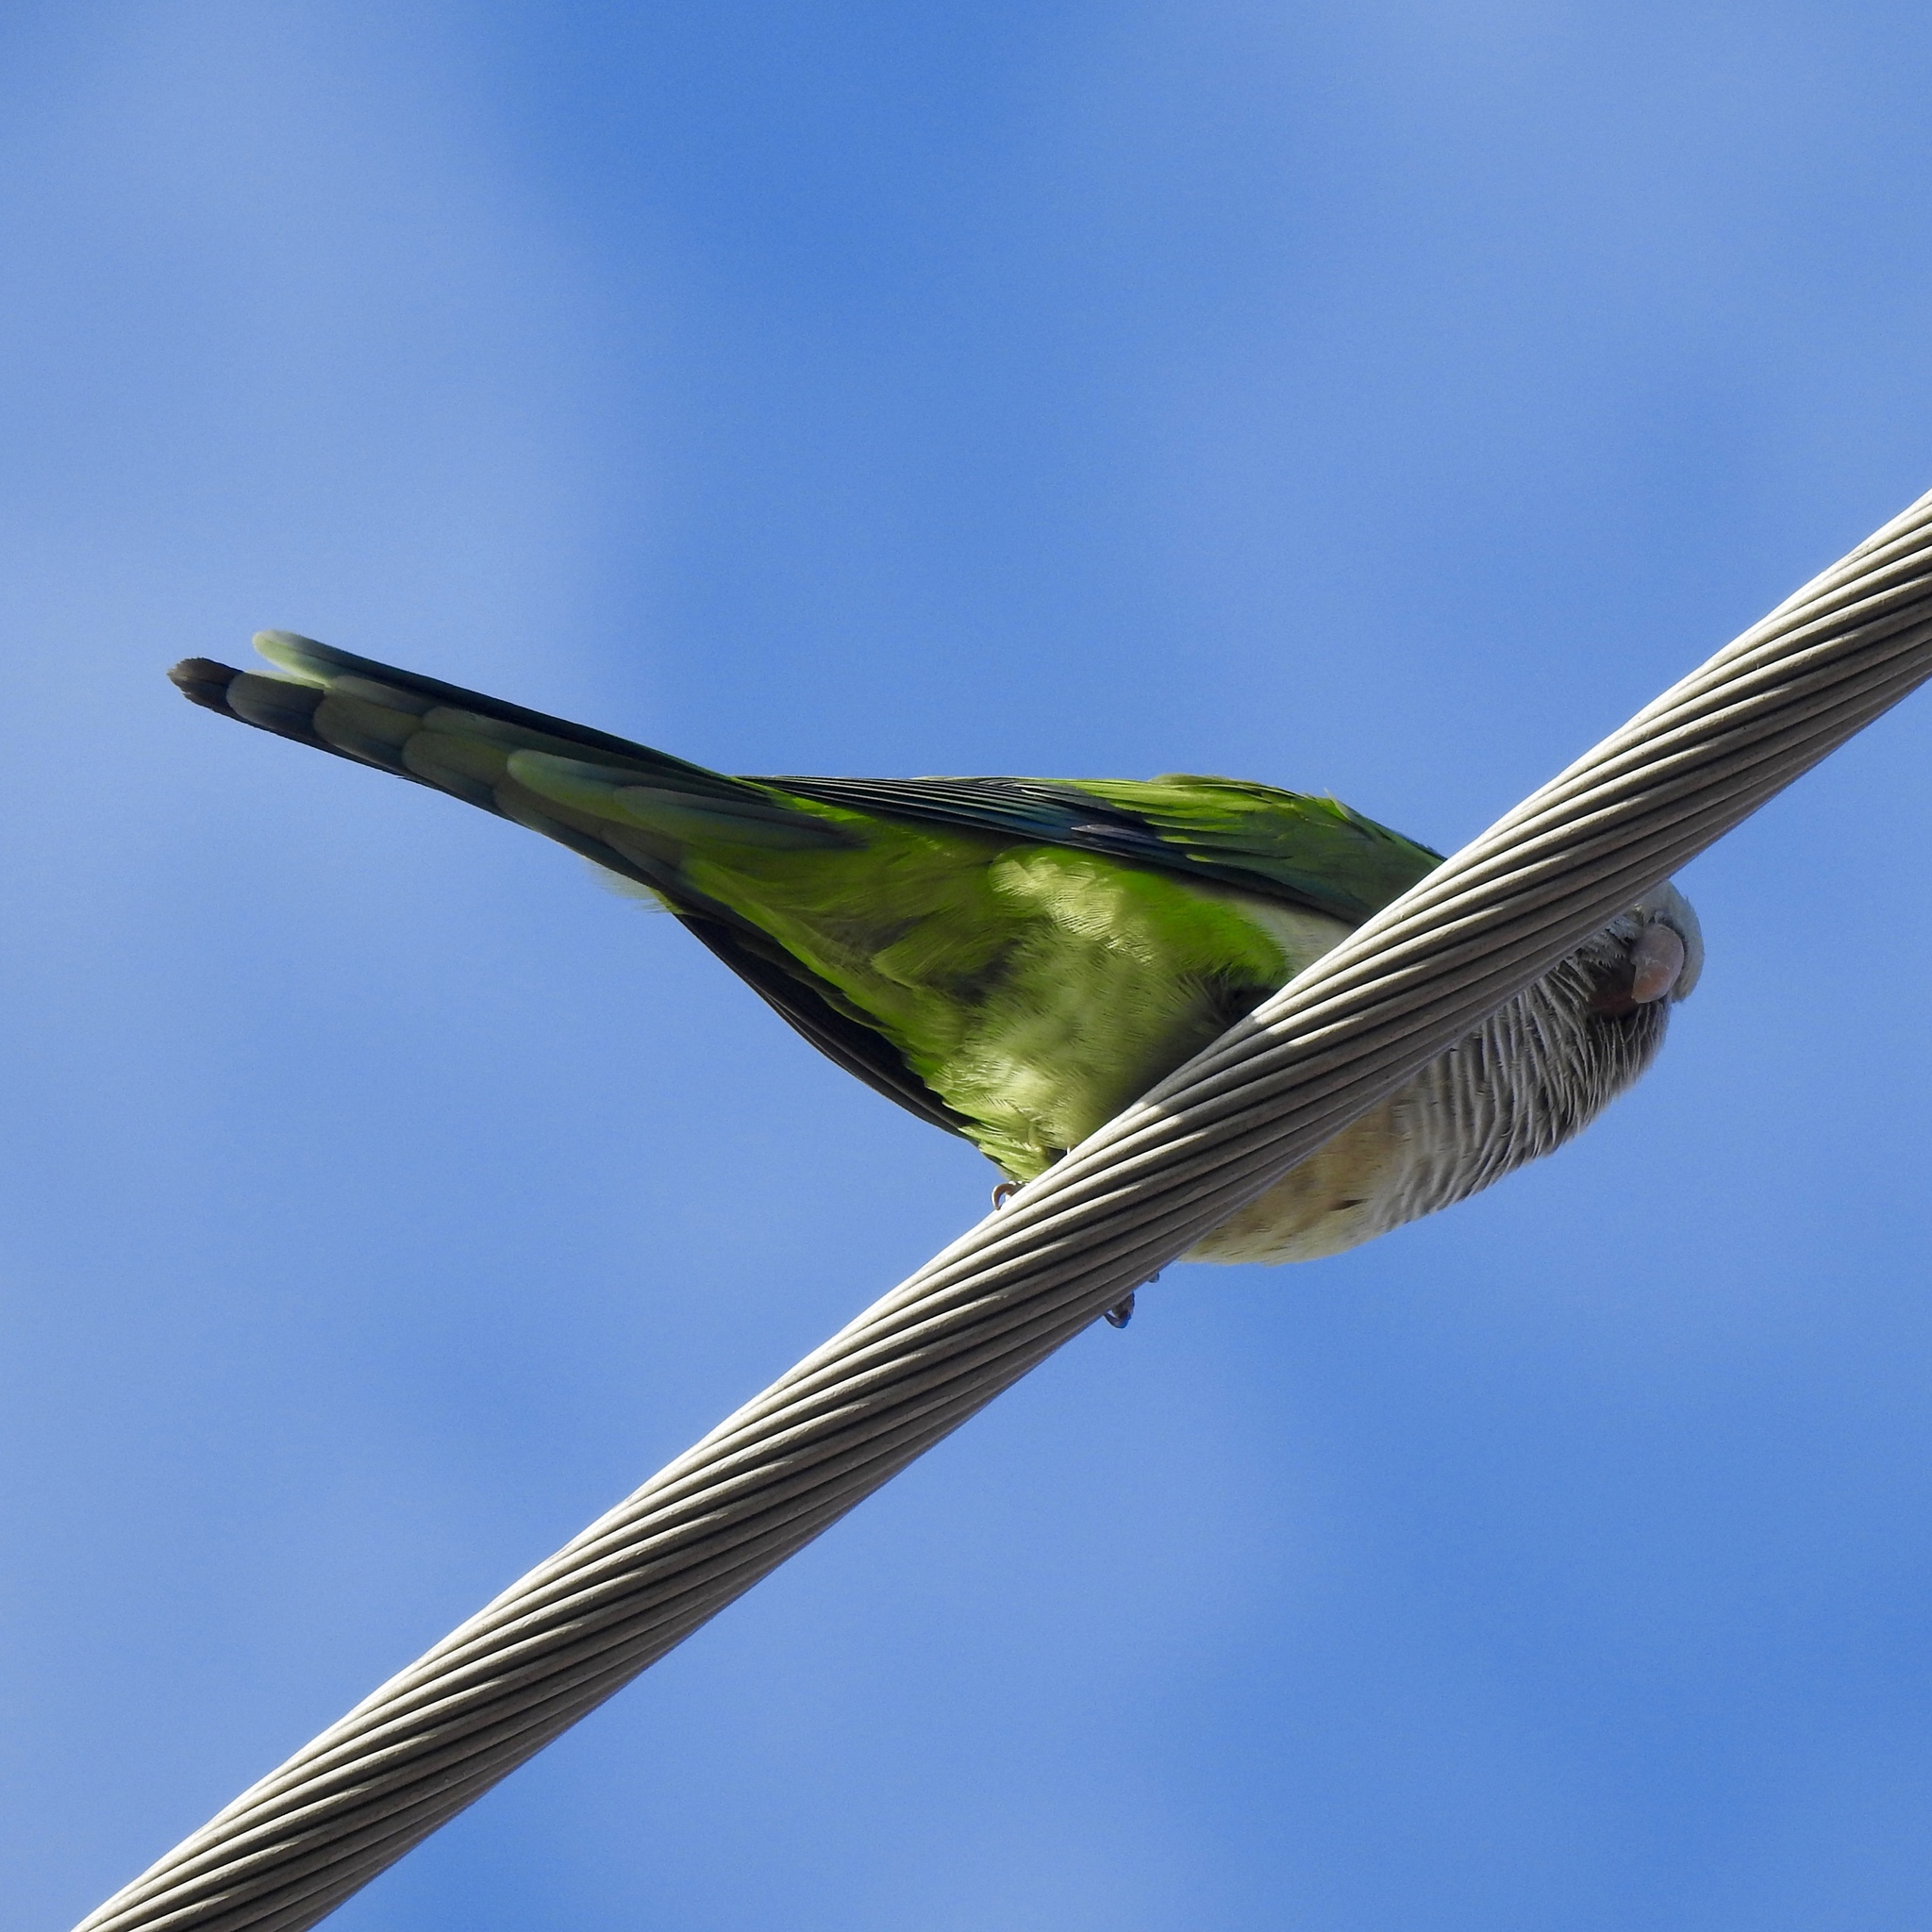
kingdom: Animalia
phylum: Chordata
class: Aves
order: Psittaciformes
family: Psittacidae
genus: Myiopsitta
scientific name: Myiopsitta monachus
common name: Monk parakeet
